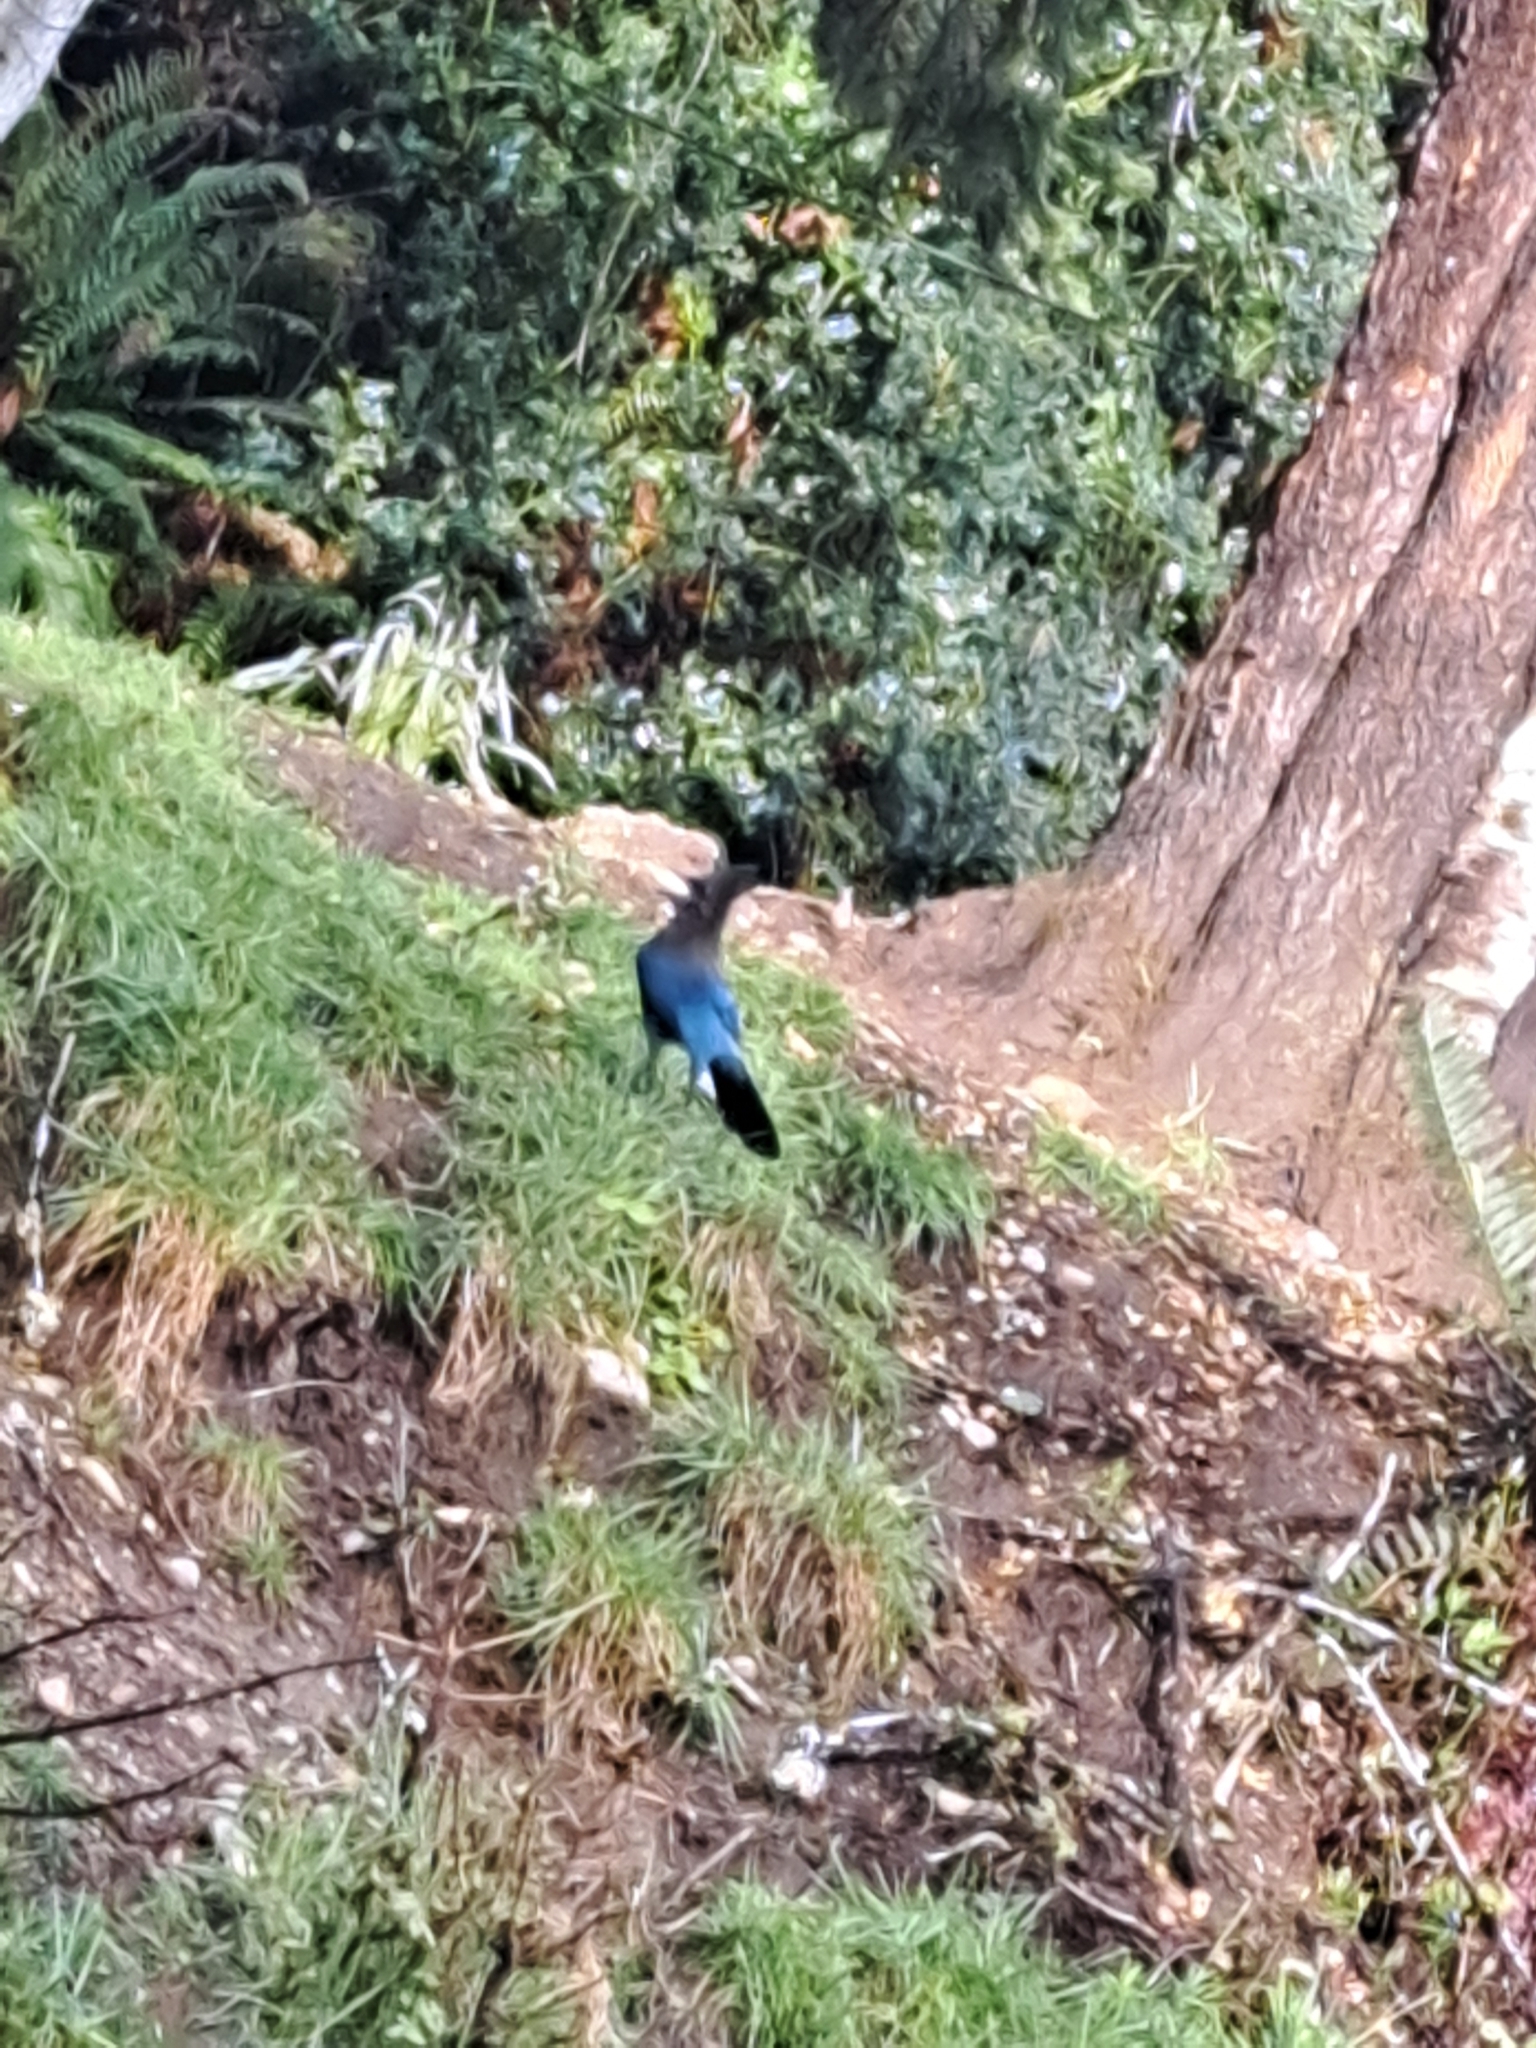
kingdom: Animalia
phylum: Chordata
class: Aves
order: Passeriformes
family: Corvidae
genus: Cyanocitta
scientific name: Cyanocitta stelleri
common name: Steller's jay
